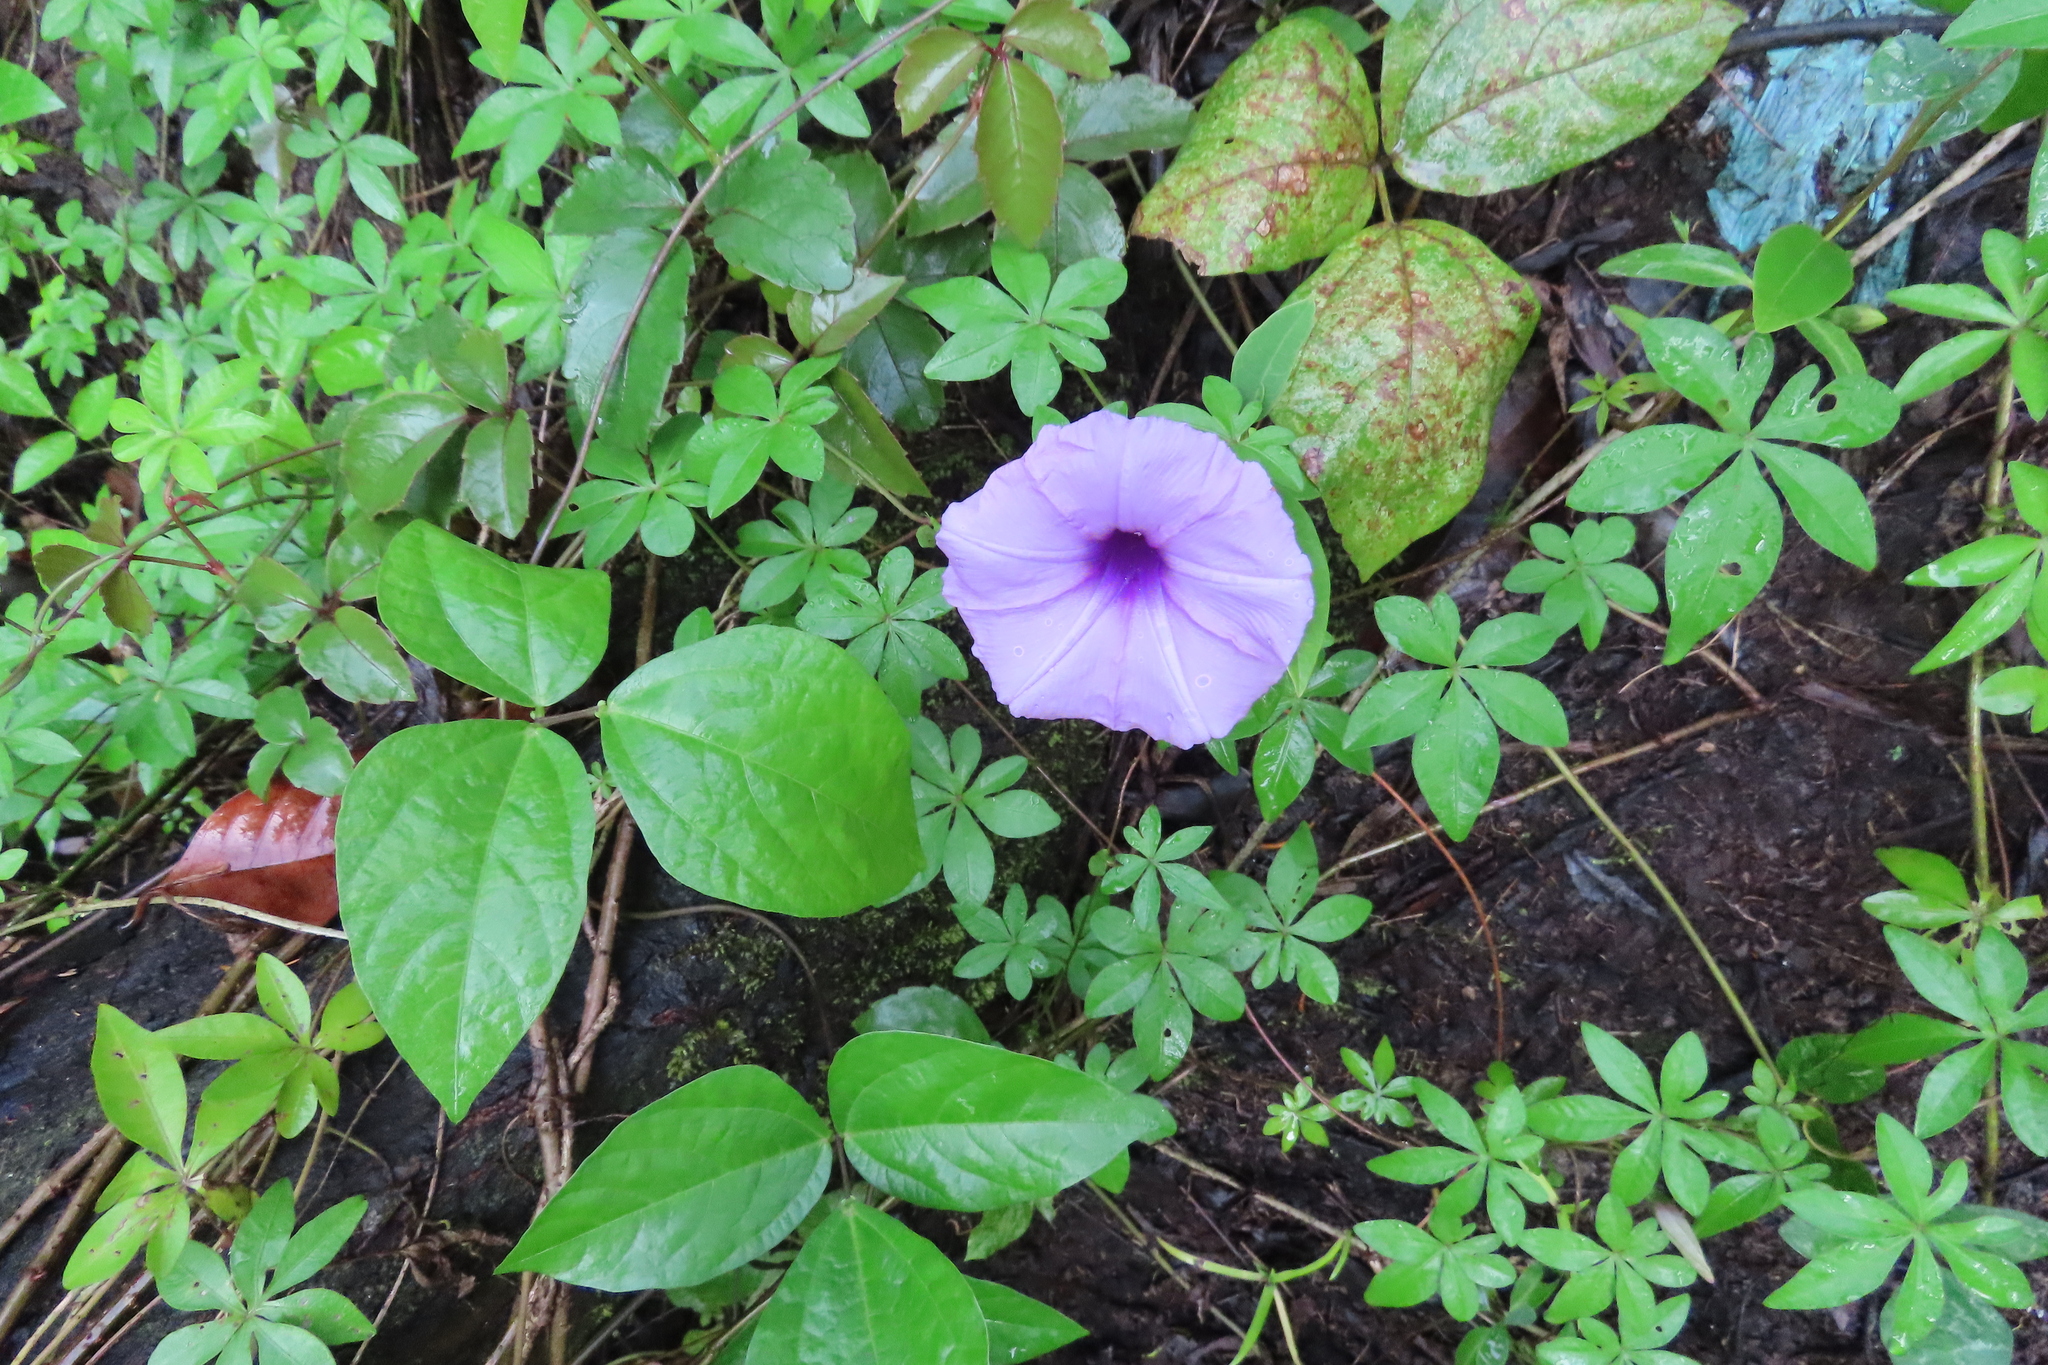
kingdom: Plantae
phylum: Tracheophyta
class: Magnoliopsida
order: Solanales
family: Convolvulaceae
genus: Ipomoea
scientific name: Ipomoea cairica
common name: Mile a minute vine
